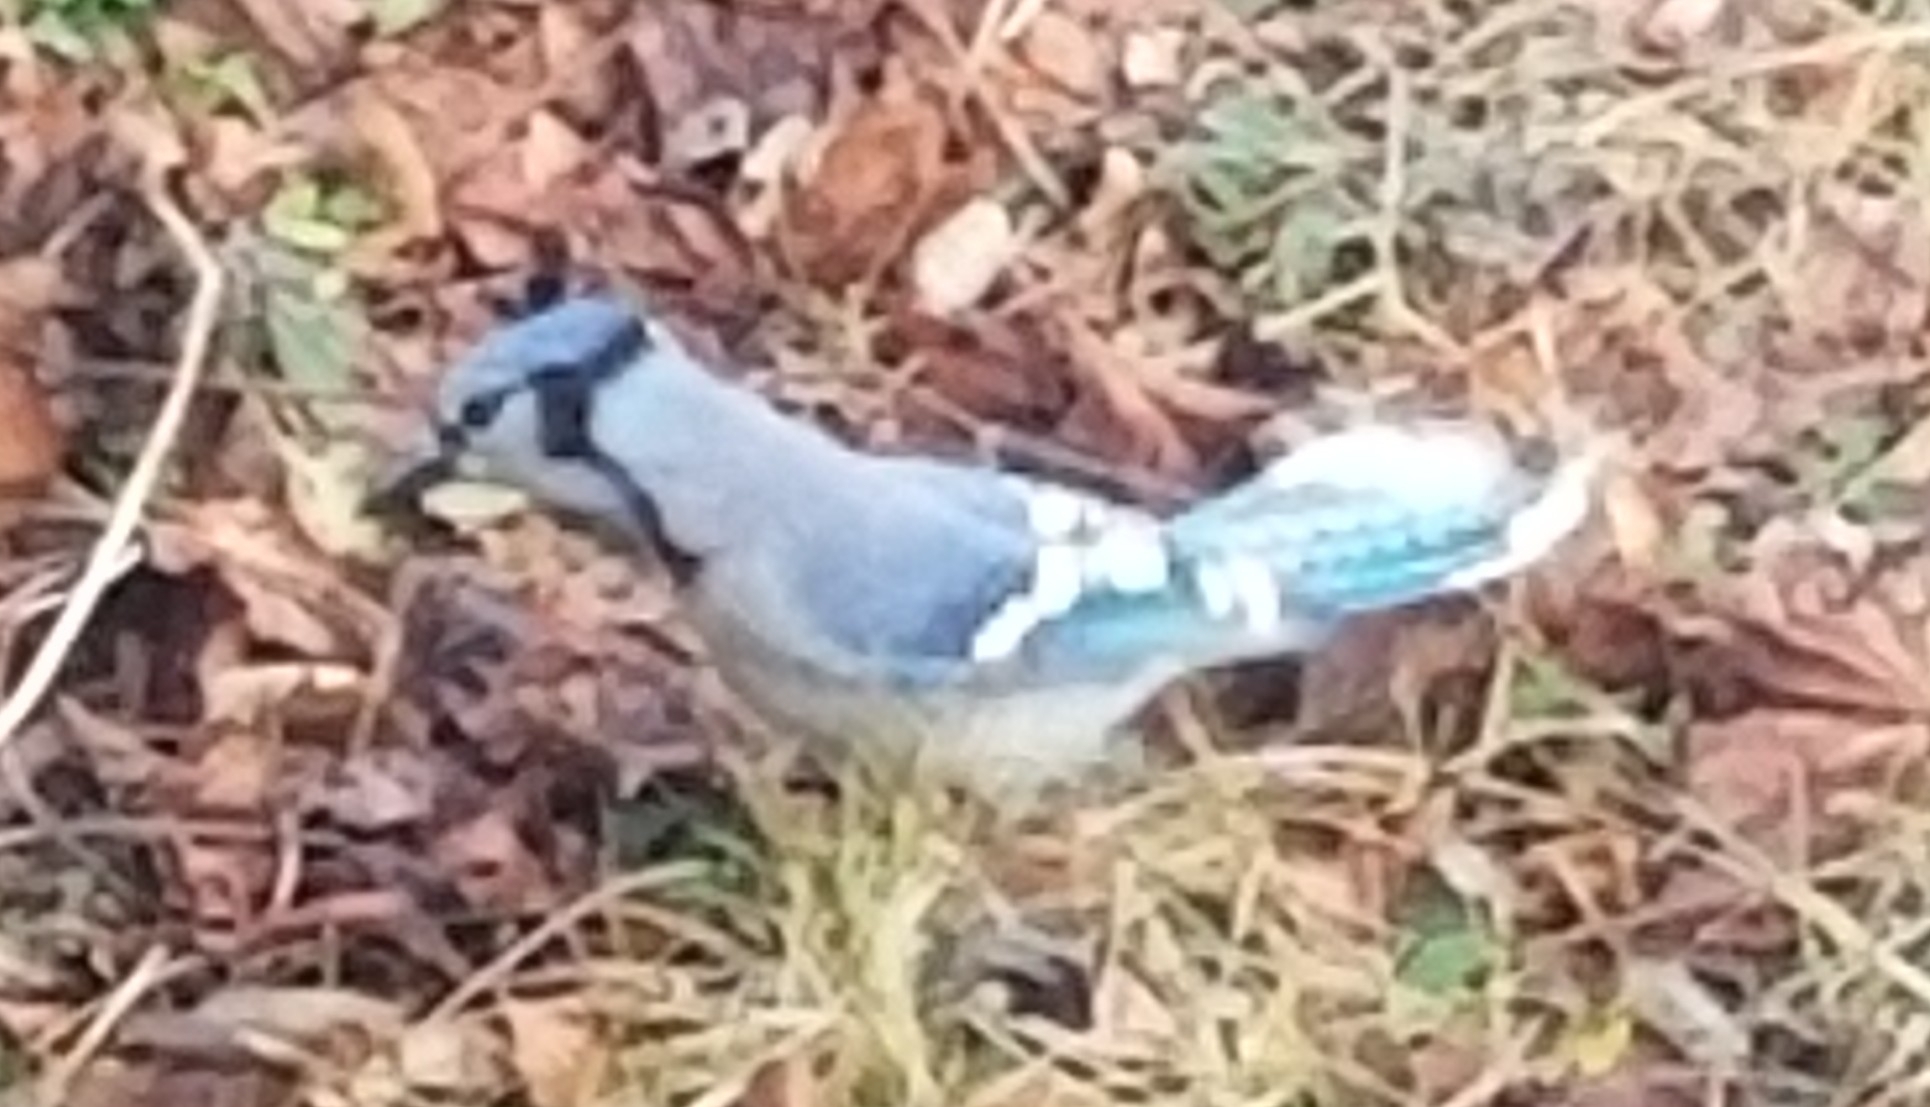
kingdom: Animalia
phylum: Chordata
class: Aves
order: Passeriformes
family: Corvidae
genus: Cyanocitta
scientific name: Cyanocitta cristata
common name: Blue jay
